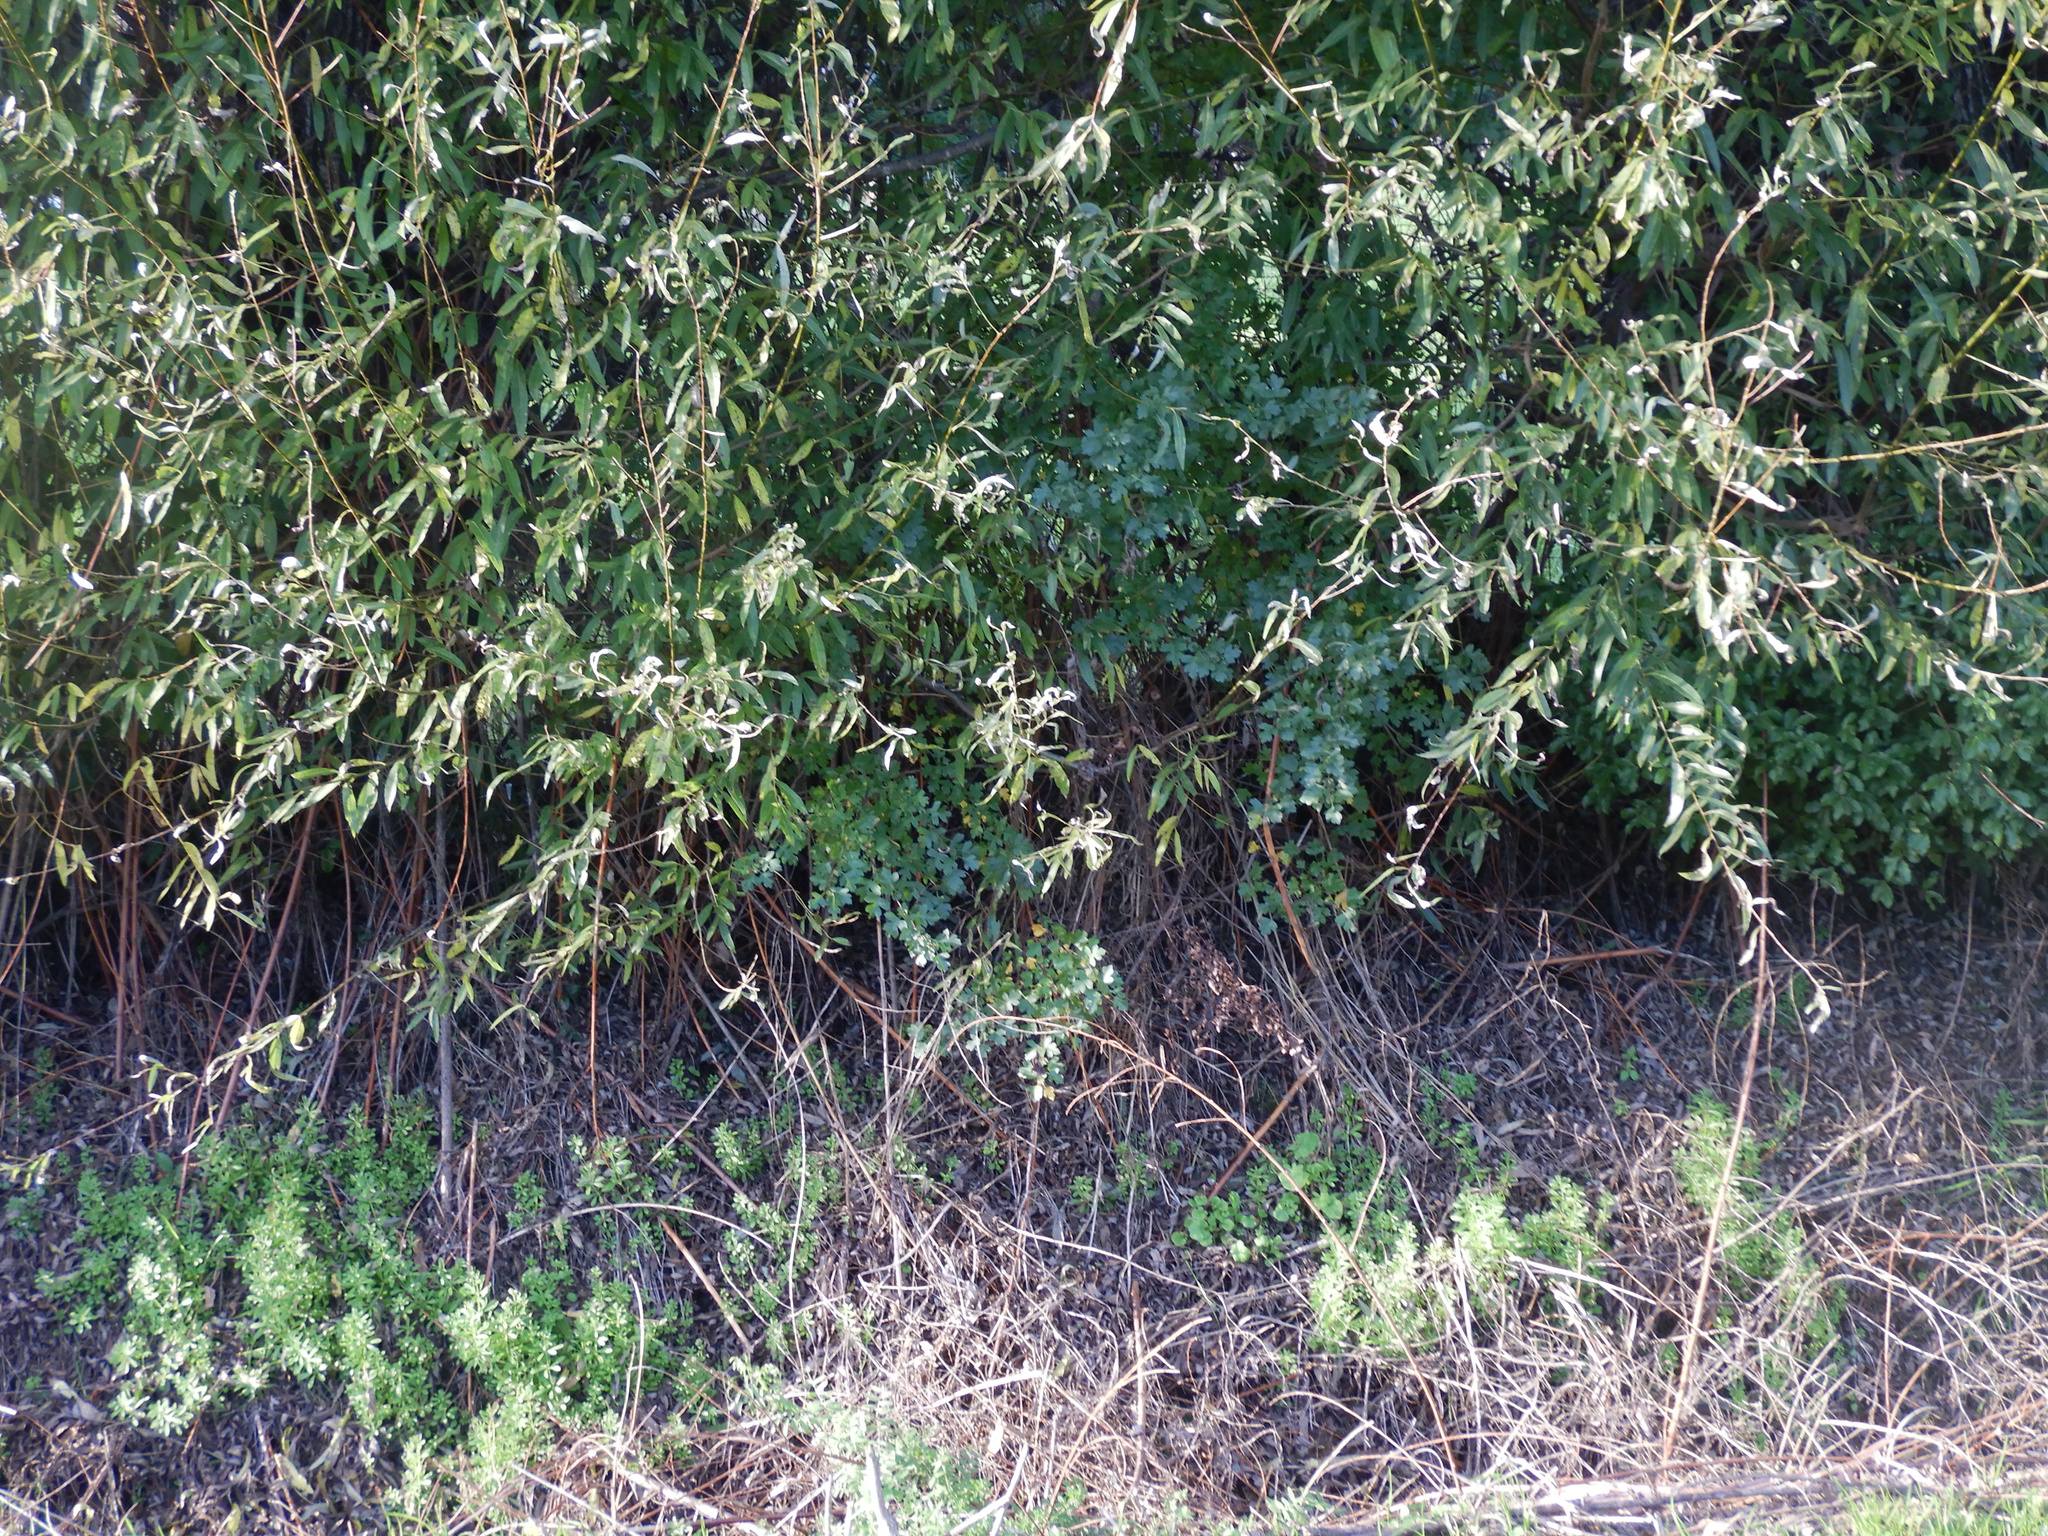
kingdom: Plantae
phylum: Tracheophyta
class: Magnoliopsida
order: Rosales
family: Rosaceae
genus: Crataegus
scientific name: Crataegus monogyna
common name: Hawthorn
